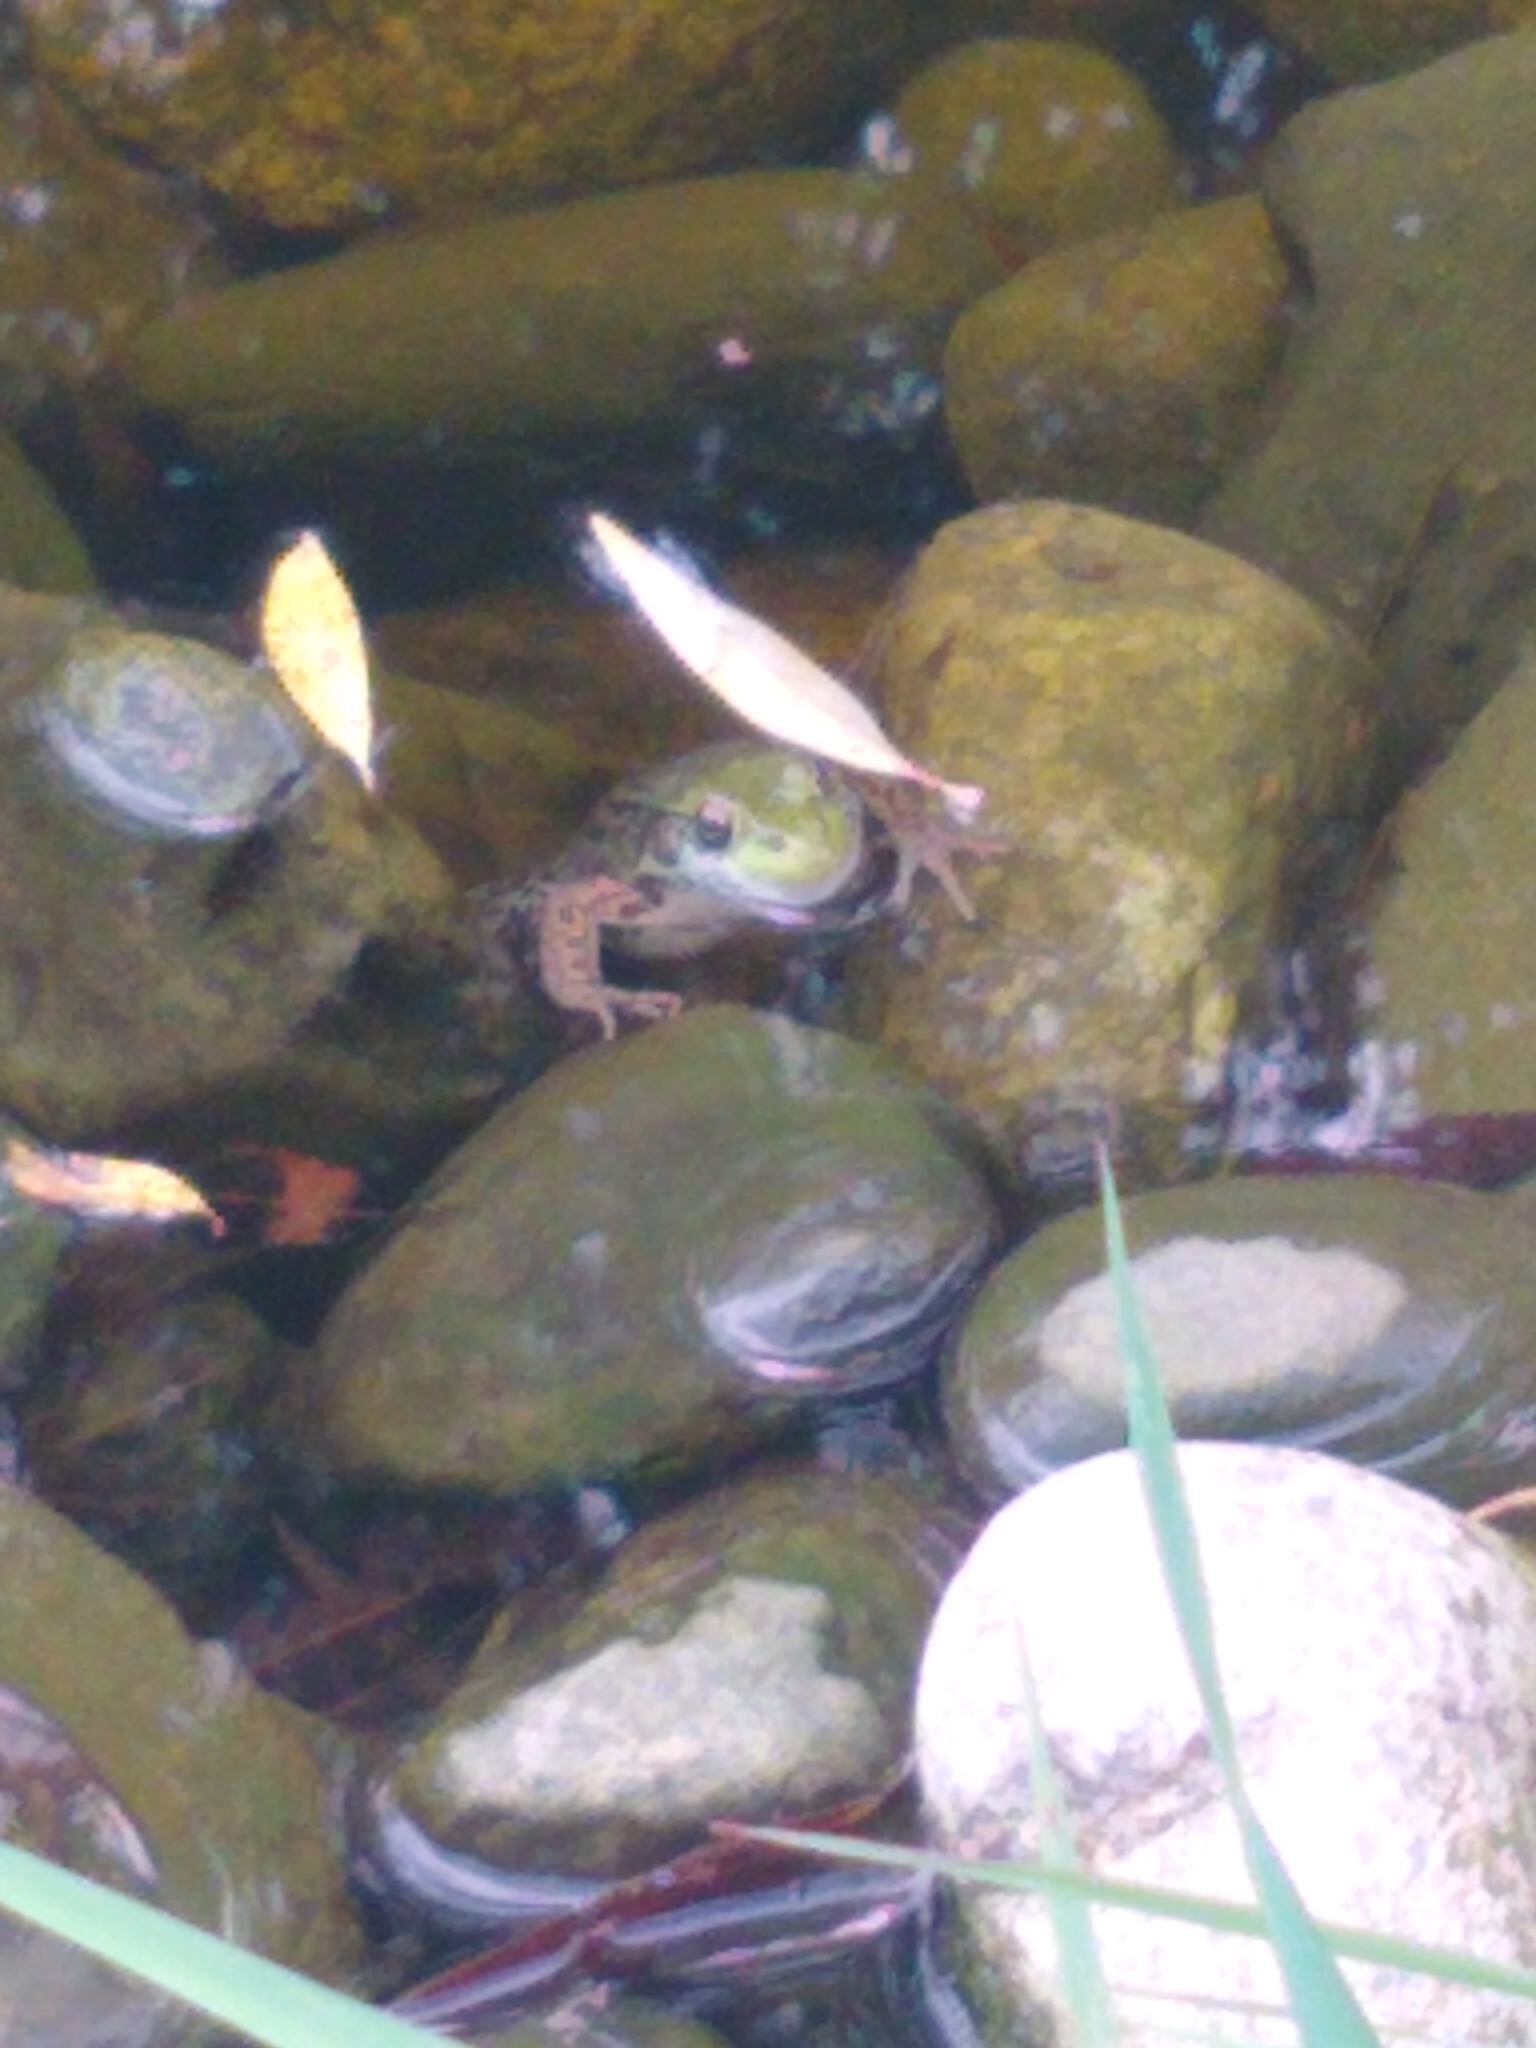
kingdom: Animalia
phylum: Chordata
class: Amphibia
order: Anura
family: Ranidae
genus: Lithobates
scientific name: Lithobates clamitans
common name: Green frog
